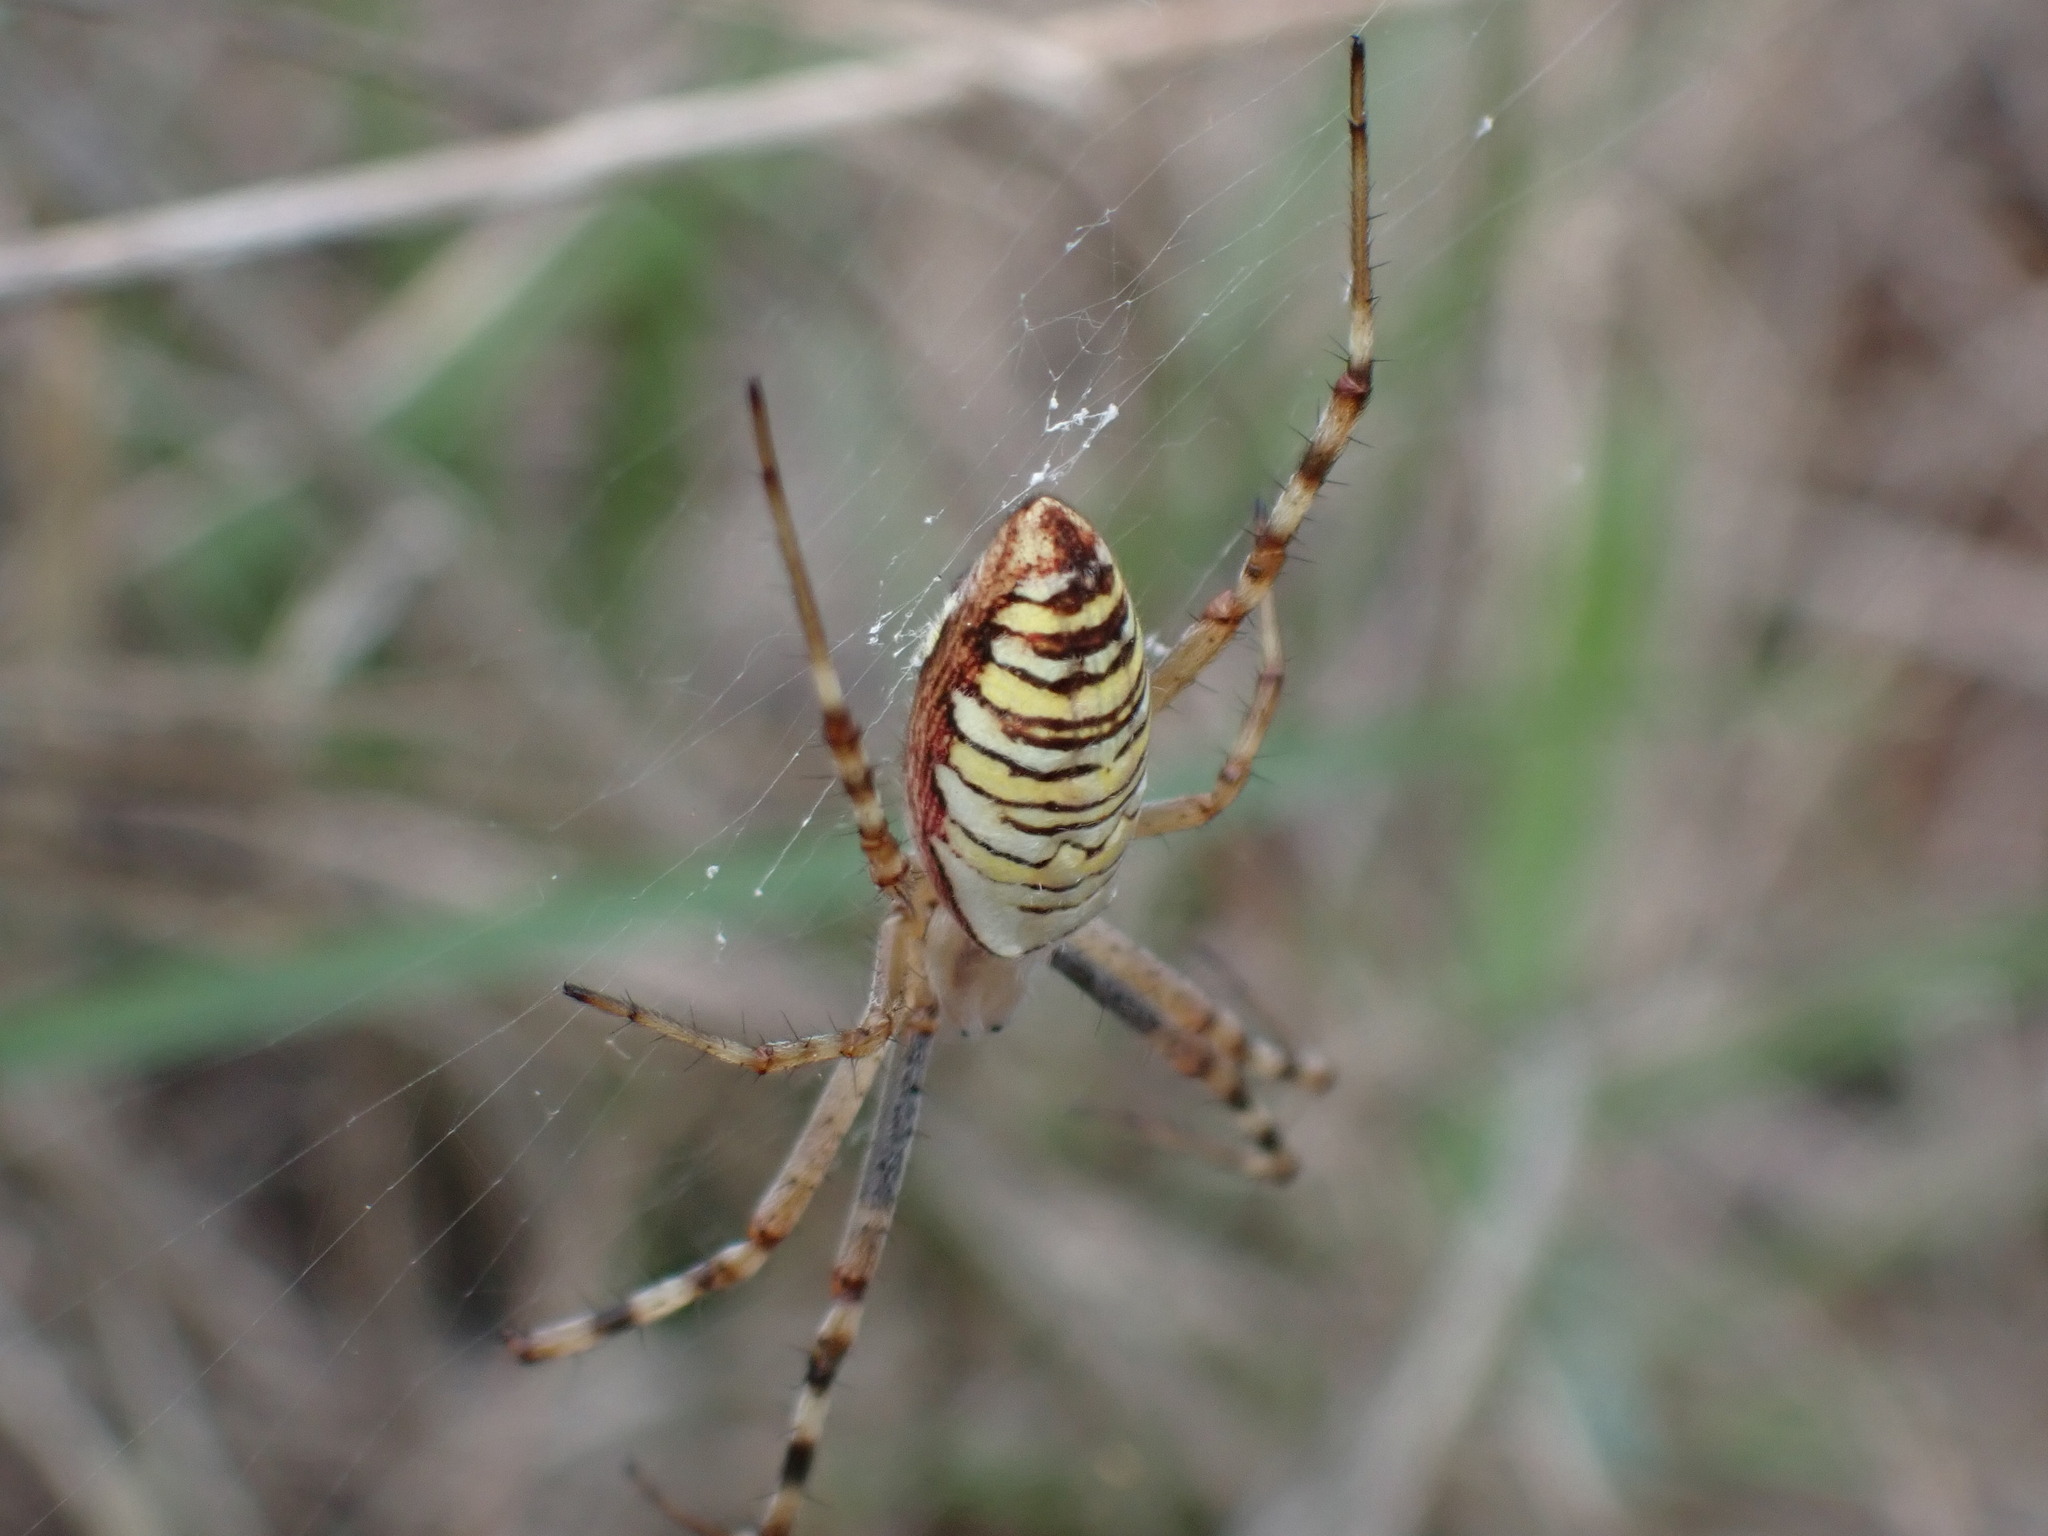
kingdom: Animalia
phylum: Arthropoda
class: Arachnida
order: Araneae
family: Araneidae
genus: Argiope
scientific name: Argiope bruennichi
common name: Wasp spider
